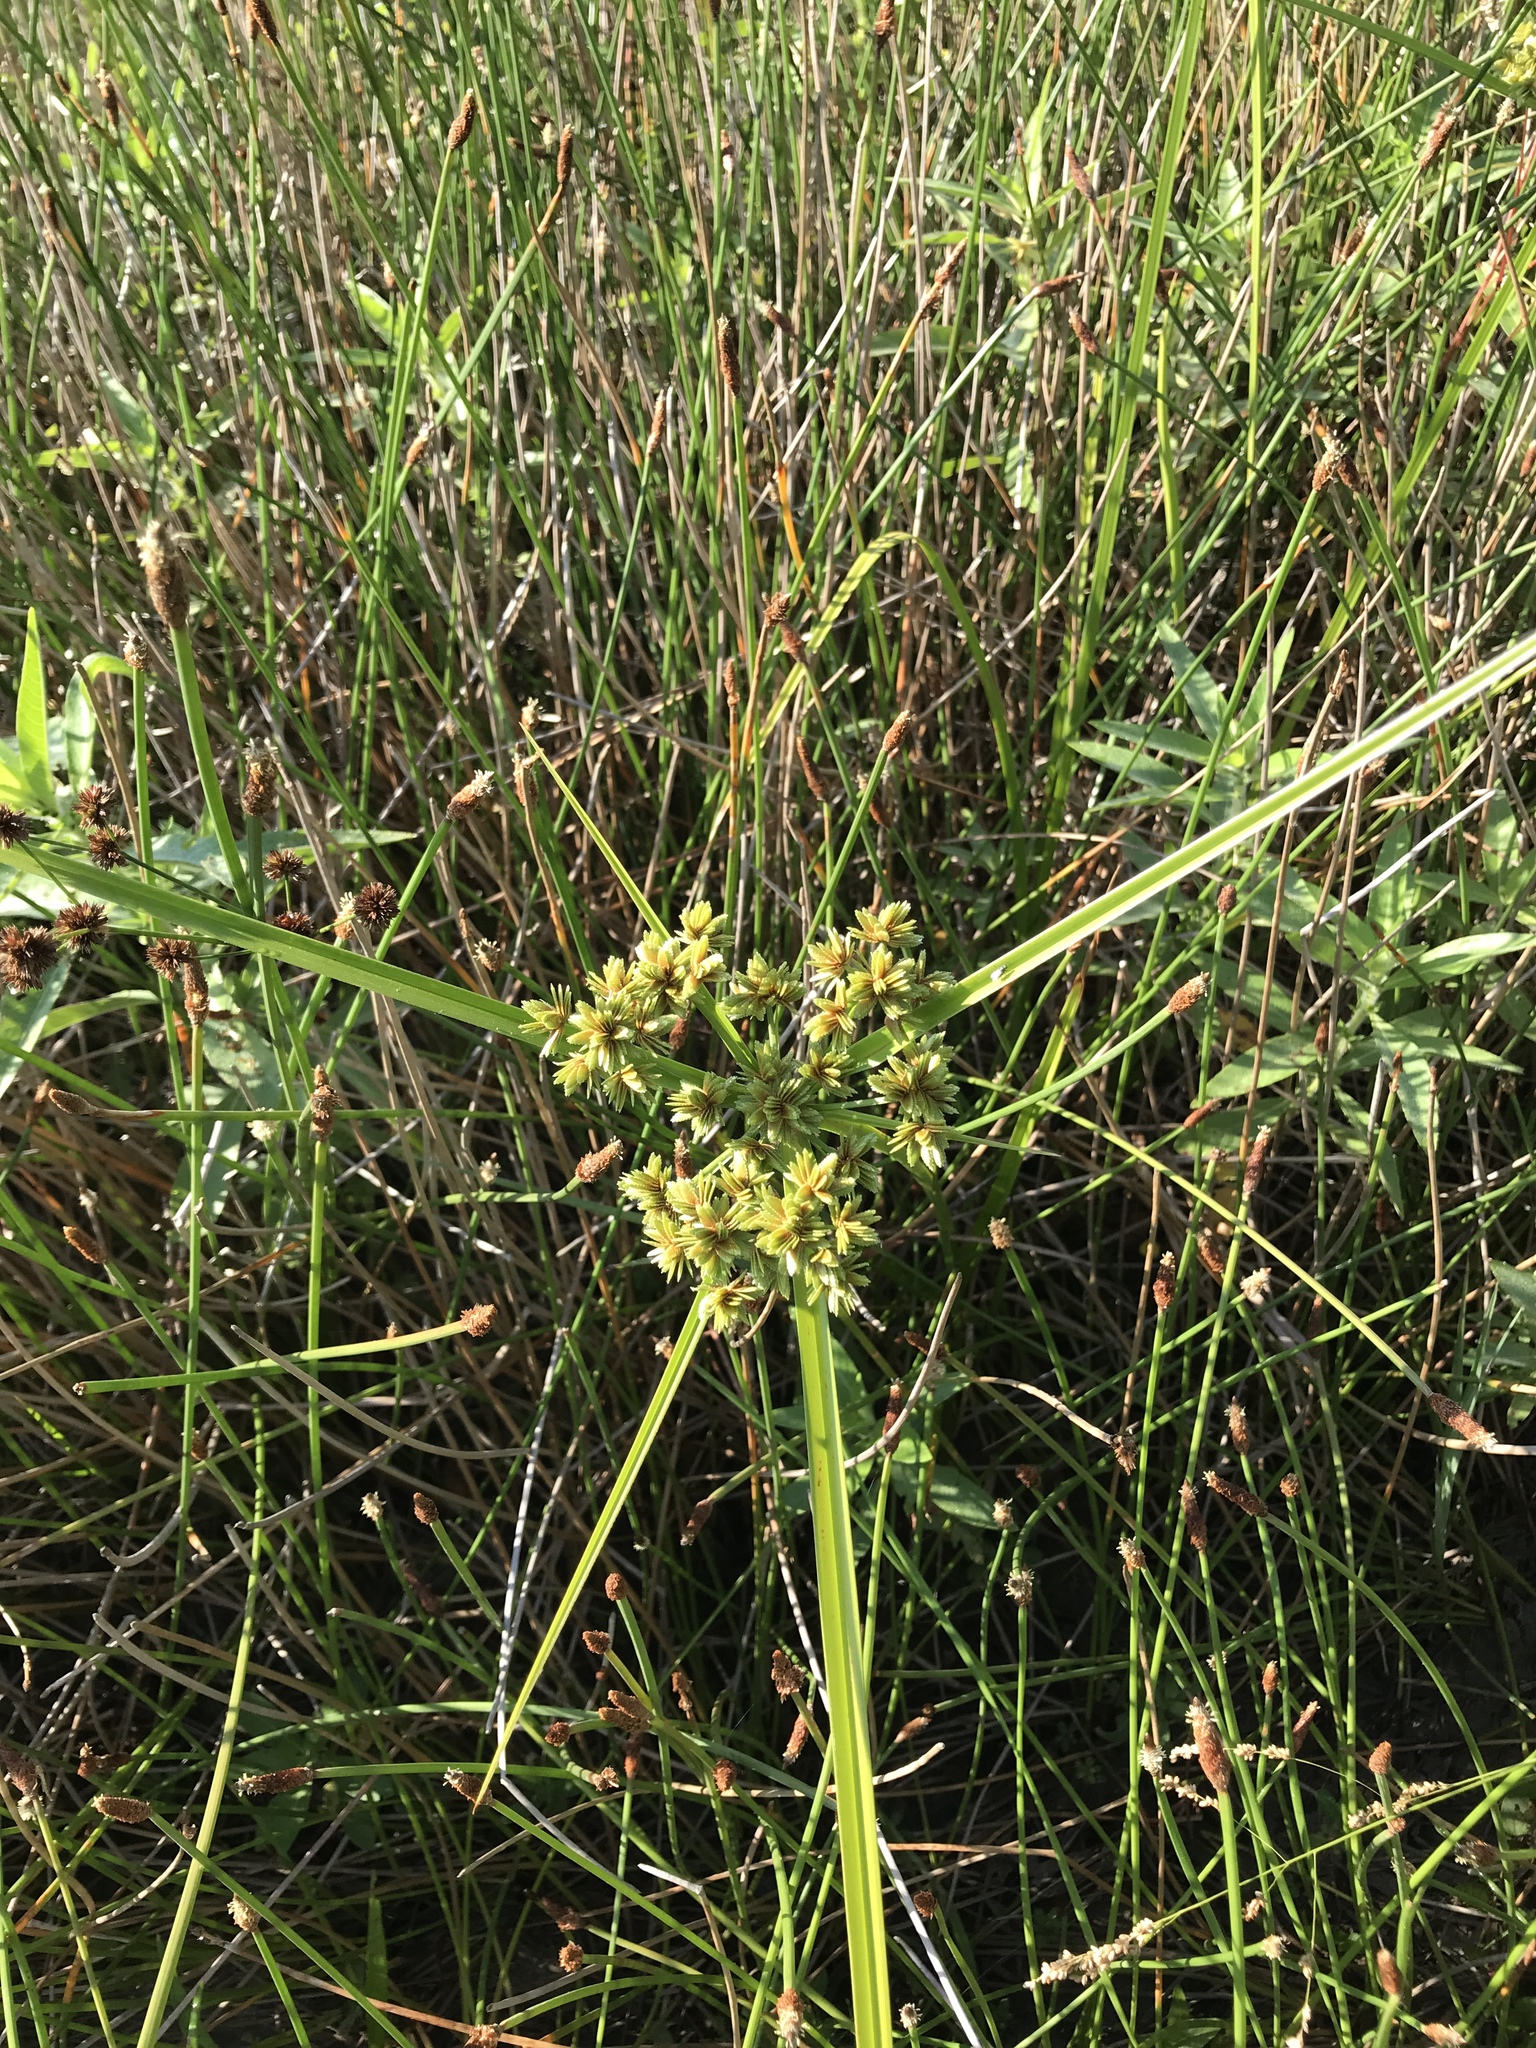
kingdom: Plantae
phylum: Tracheophyta
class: Liliopsida
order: Poales
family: Cyperaceae
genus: Cyperus
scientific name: Cyperus virens
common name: Green flatsedge
